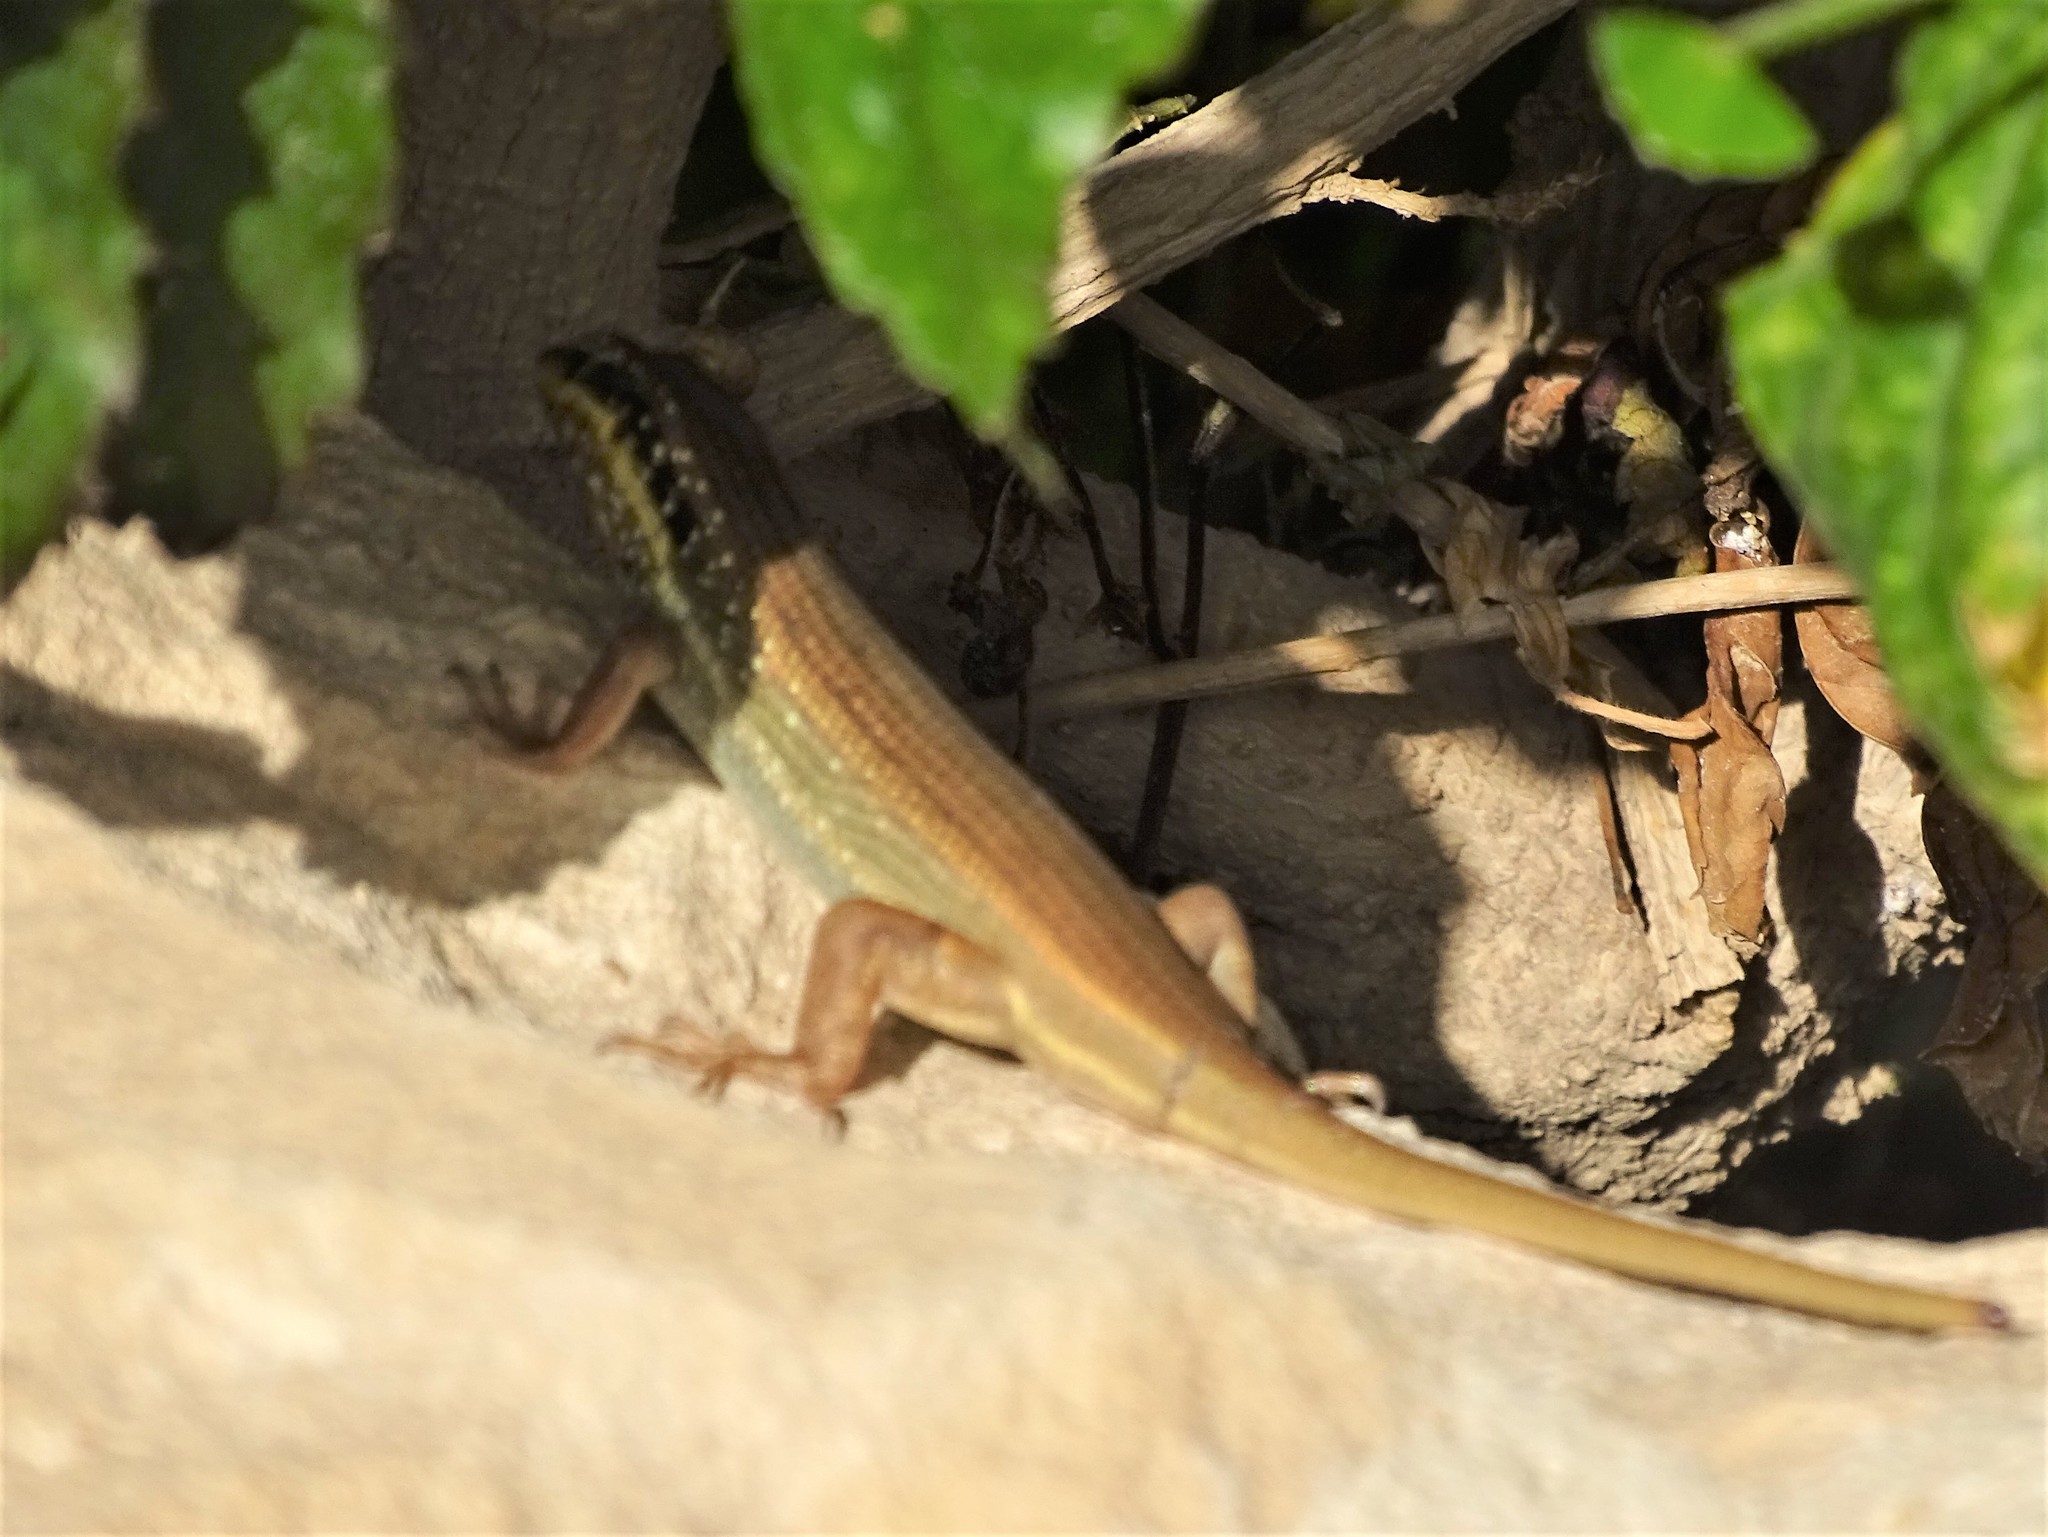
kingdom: Animalia
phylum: Chordata
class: Squamata
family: Scincidae
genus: Trachylepis
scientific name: Trachylepis quinquetaeniata
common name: African five-lined skink
